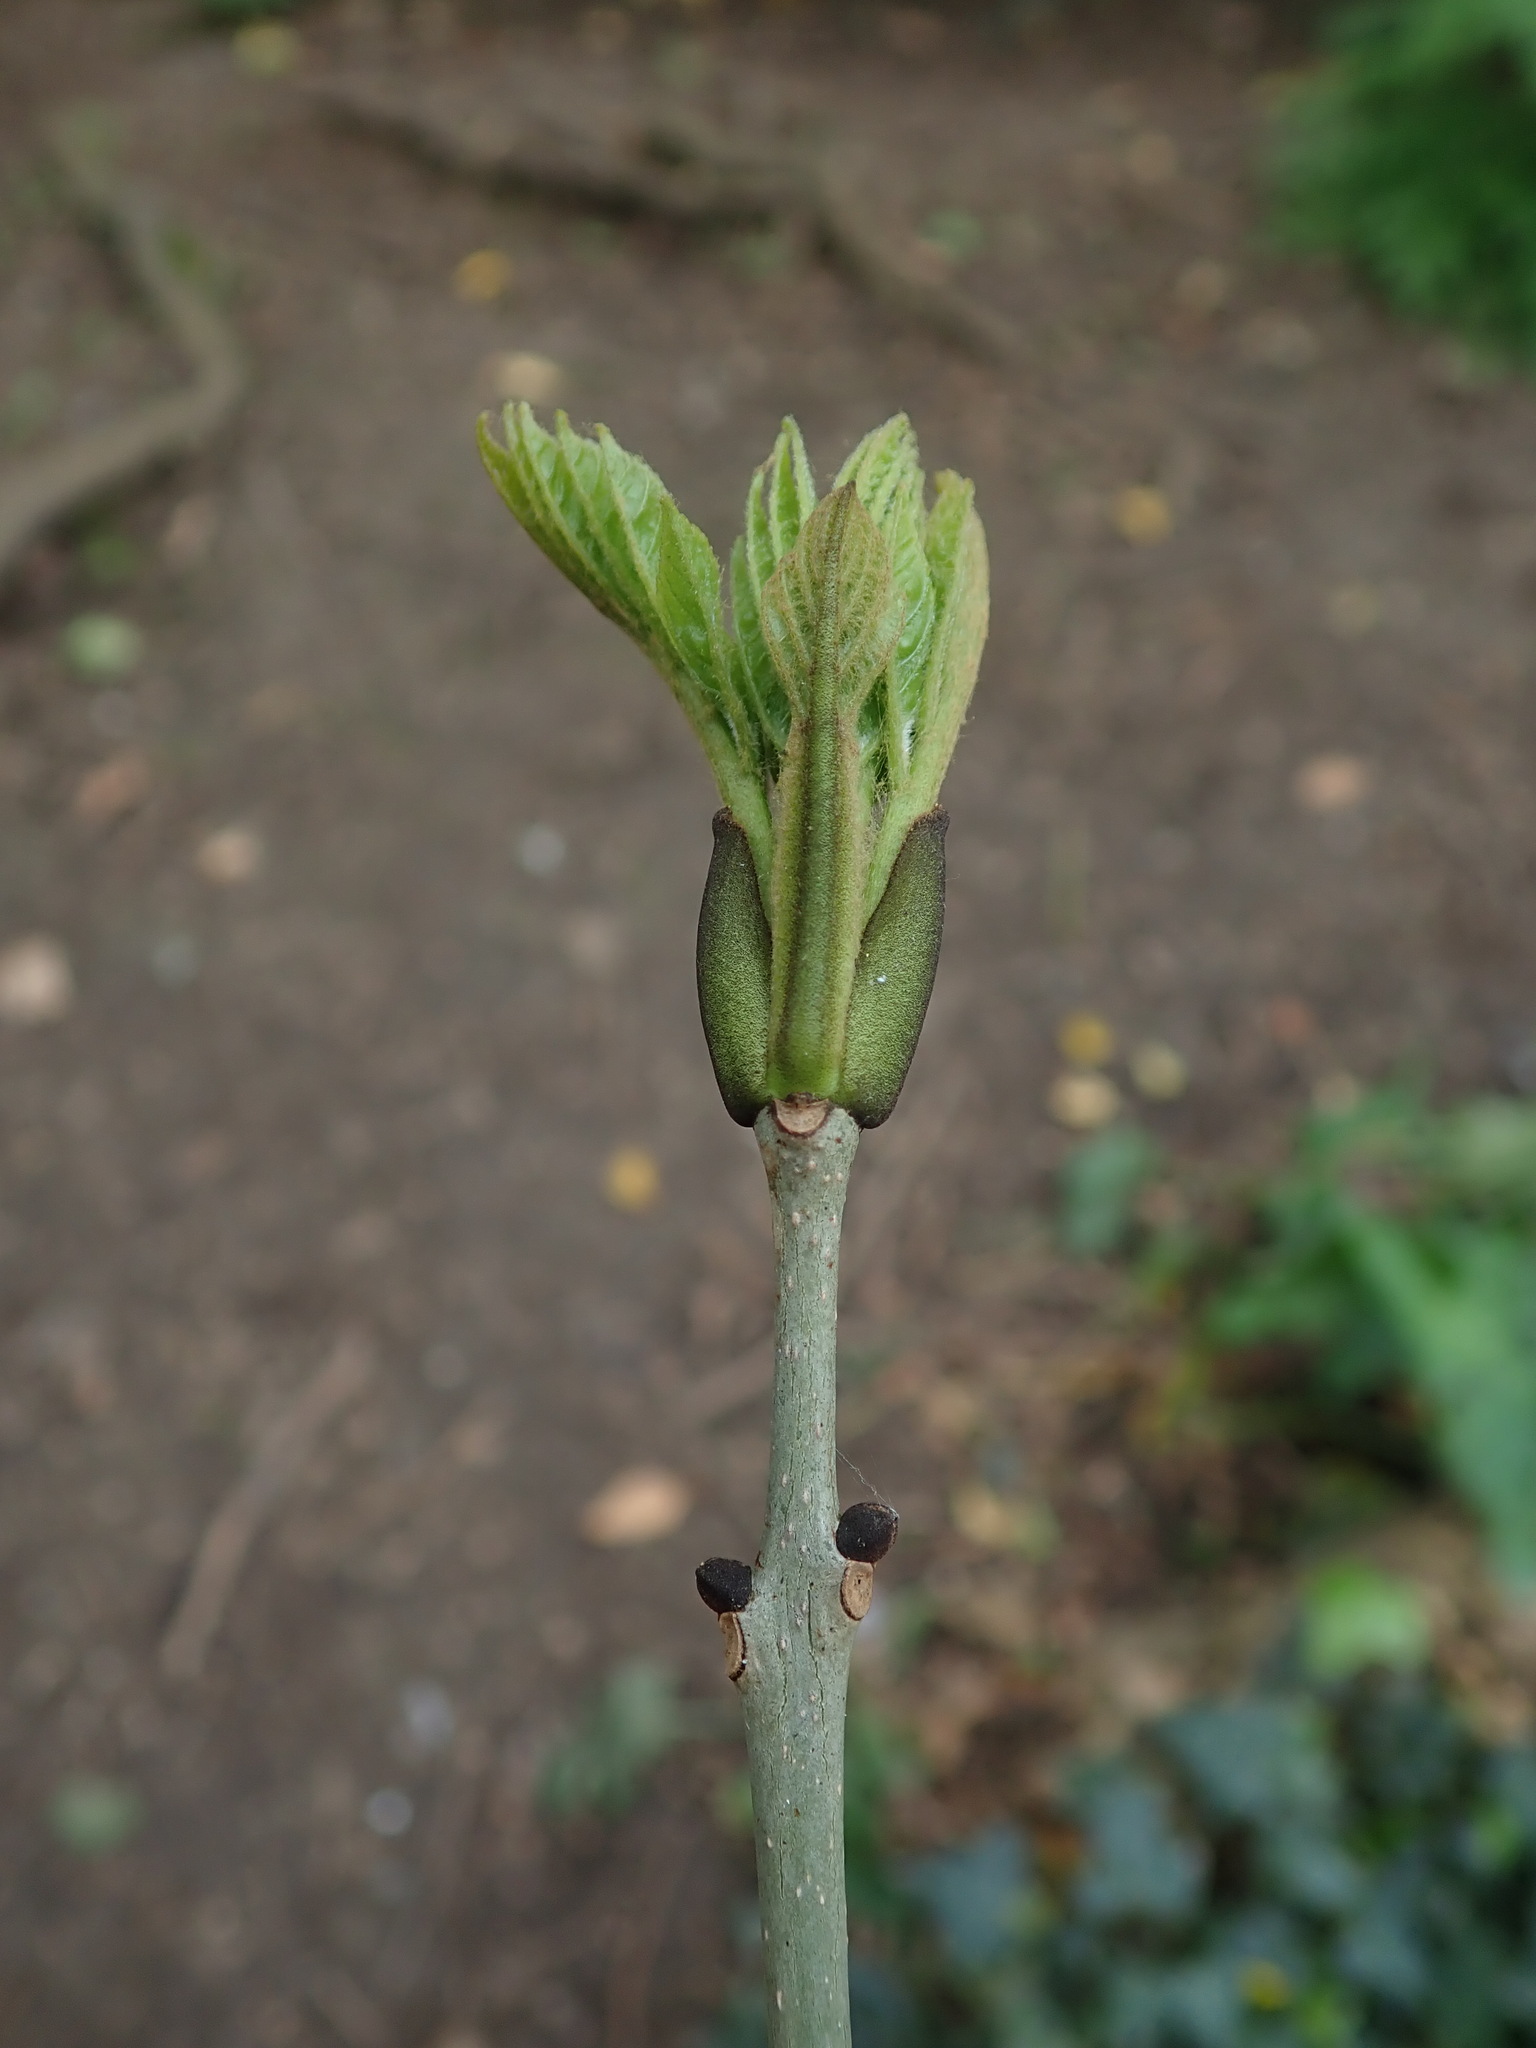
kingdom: Plantae
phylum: Tracheophyta
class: Magnoliopsida
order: Lamiales
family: Oleaceae
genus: Fraxinus
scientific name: Fraxinus excelsior
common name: European ash
